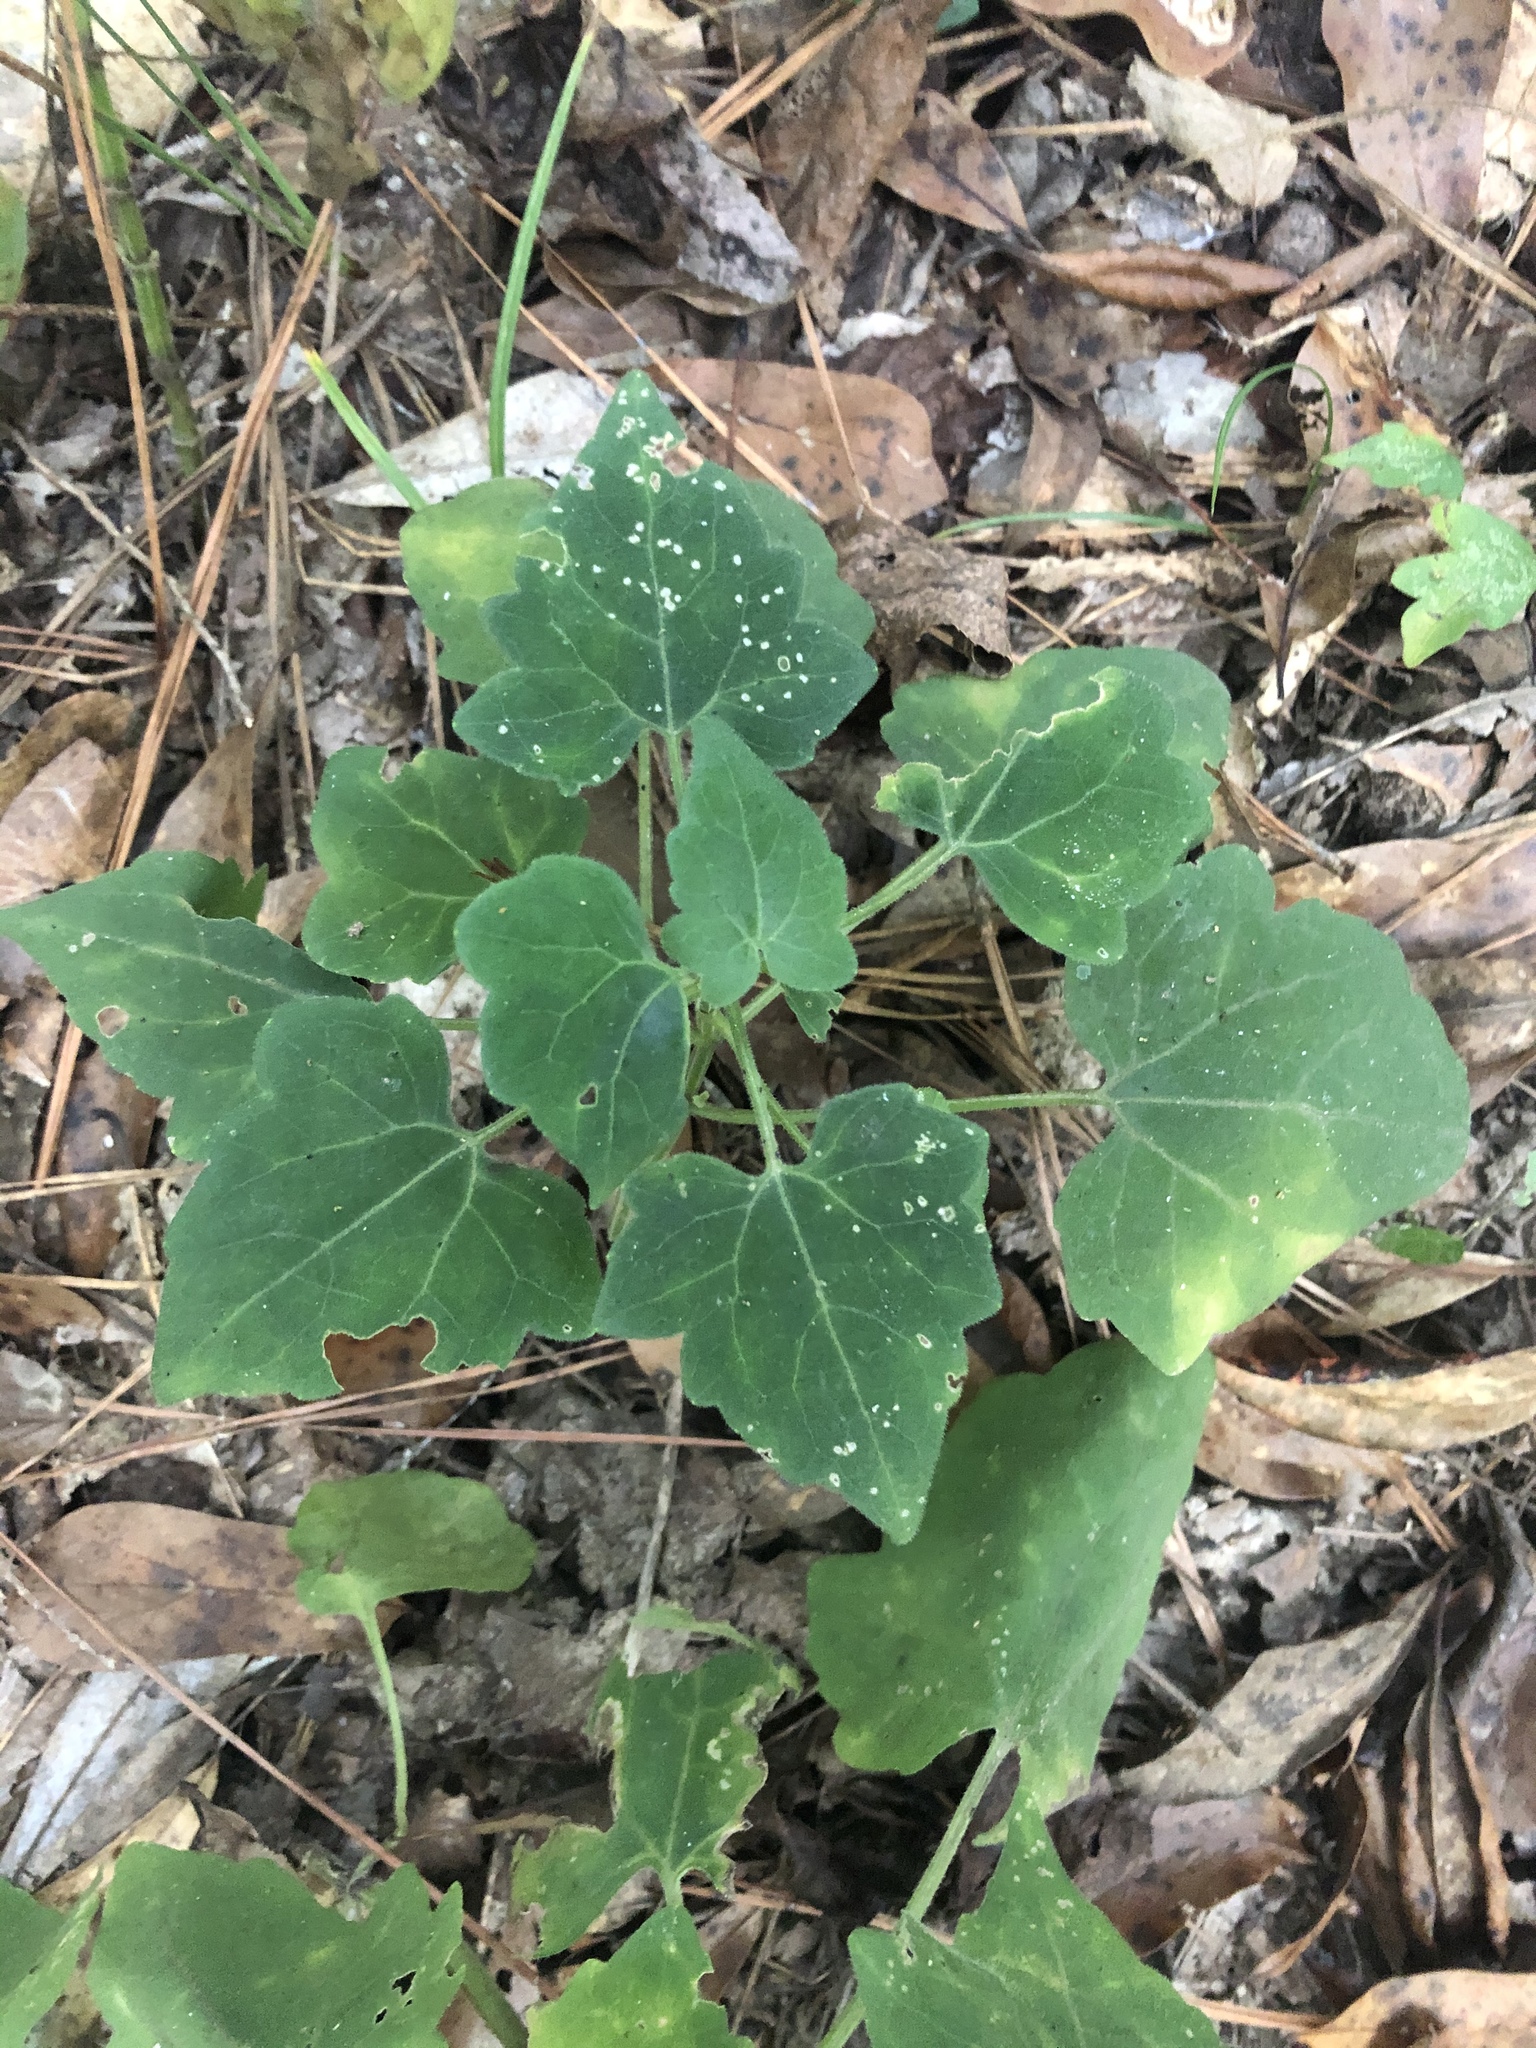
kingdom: Plantae
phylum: Tracheophyta
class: Magnoliopsida
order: Asterales
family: Asteraceae
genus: Mikania
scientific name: Mikania cordifolia
